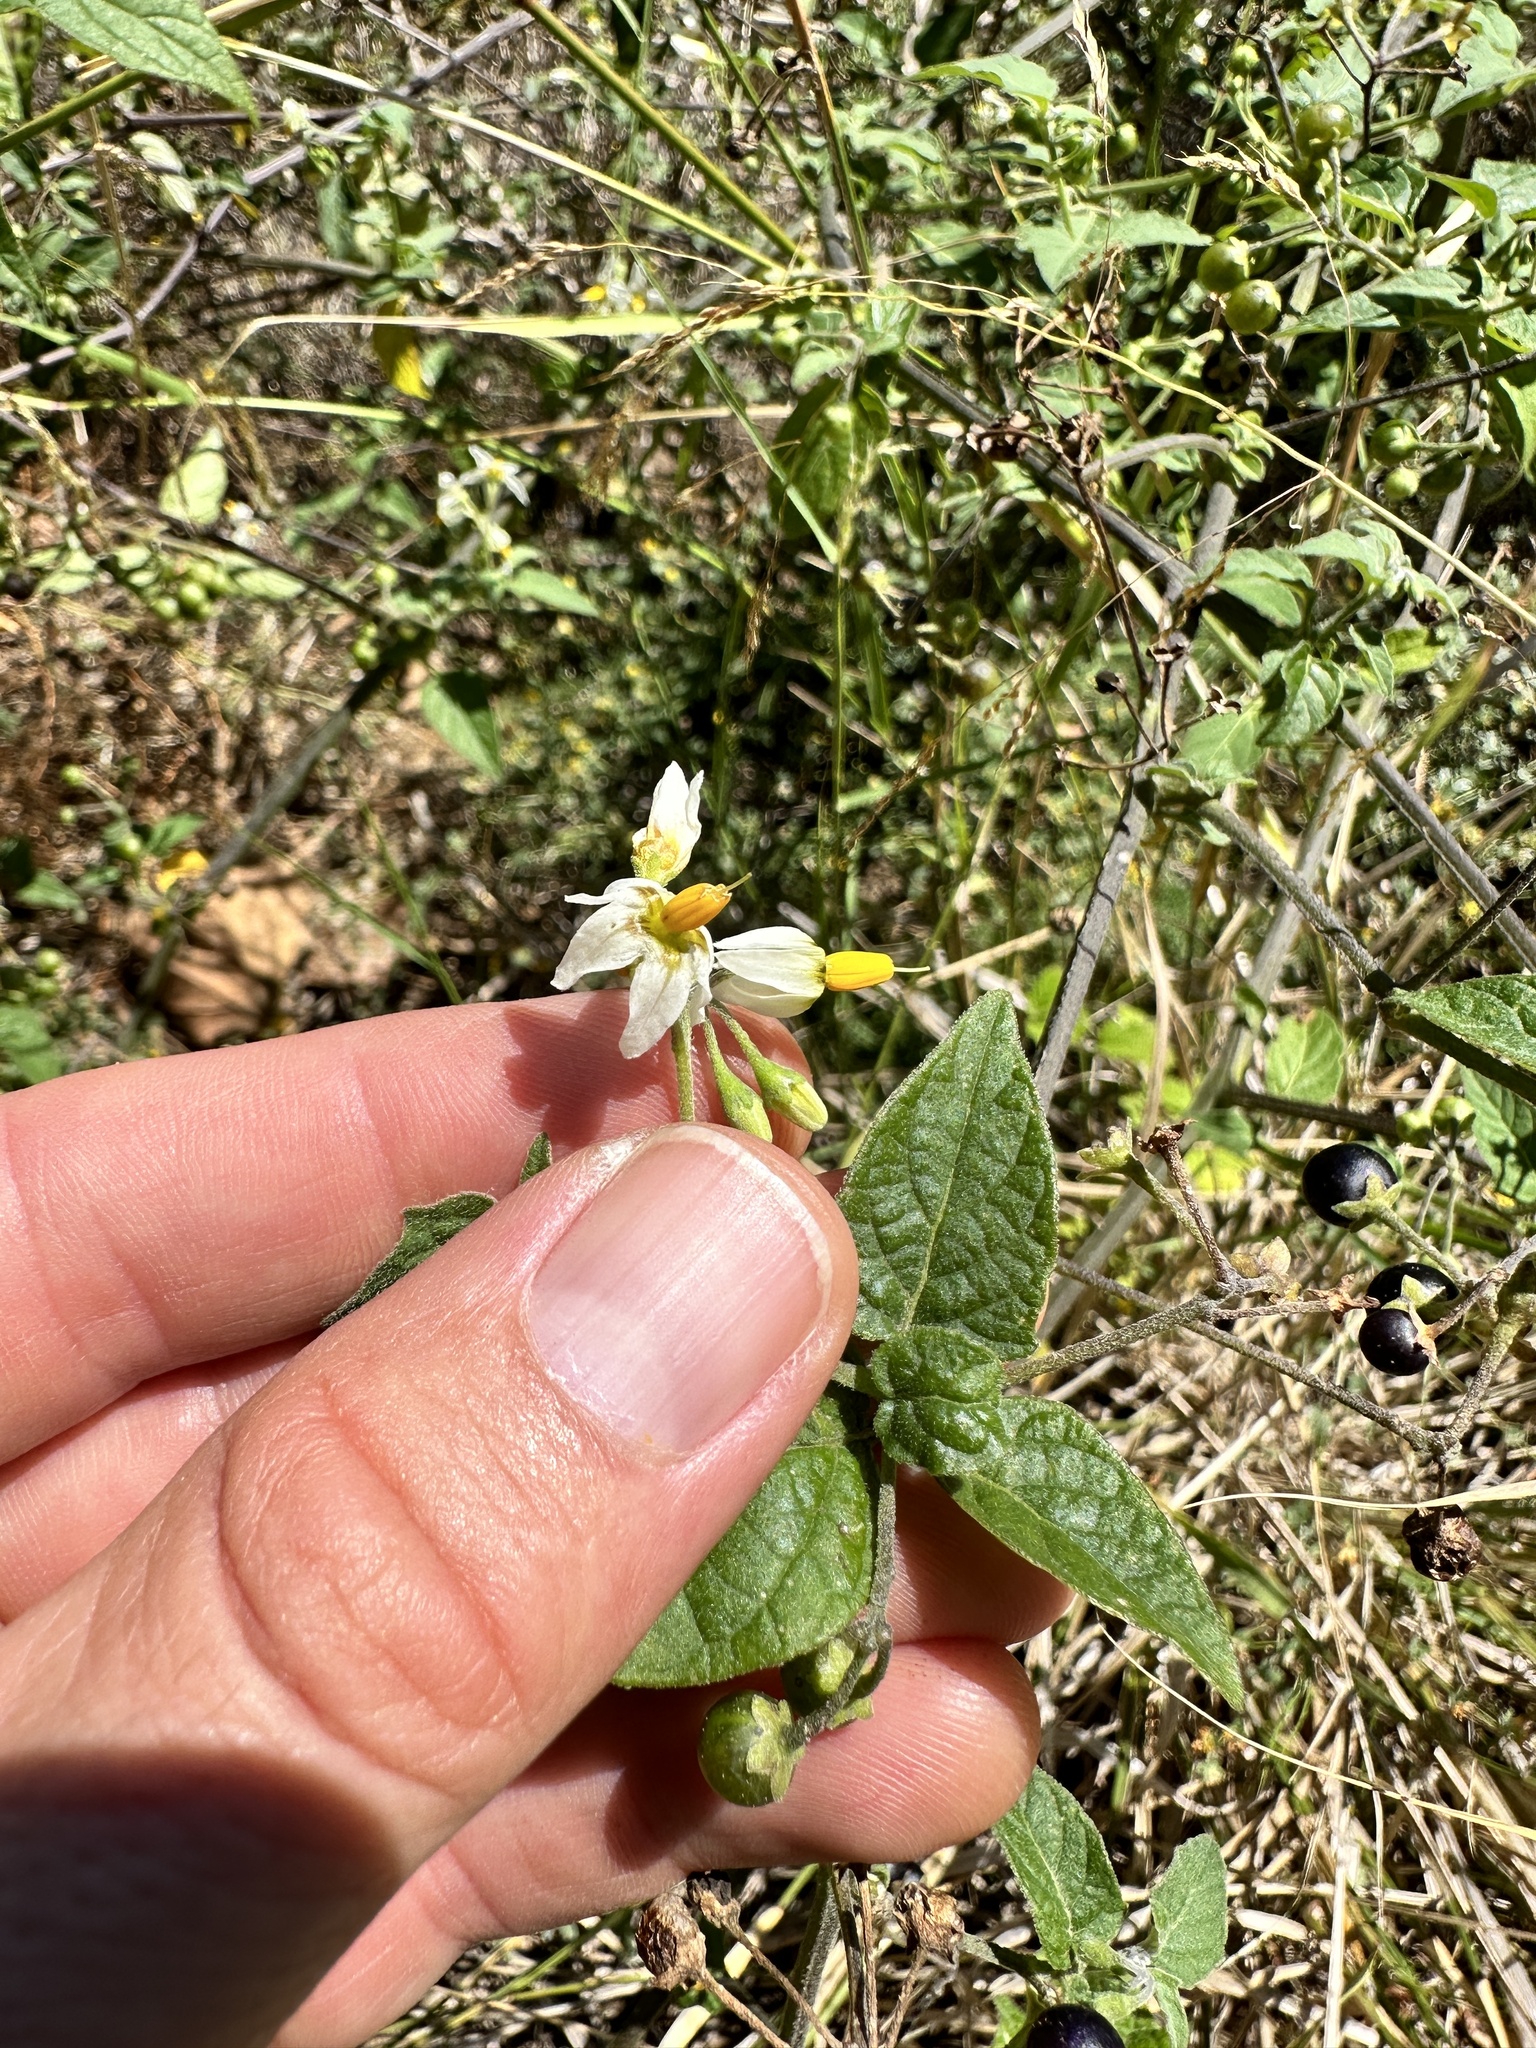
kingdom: Plantae
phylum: Tracheophyta
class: Magnoliopsida
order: Solanales
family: Solanaceae
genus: Solanum
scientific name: Solanum douglasii
